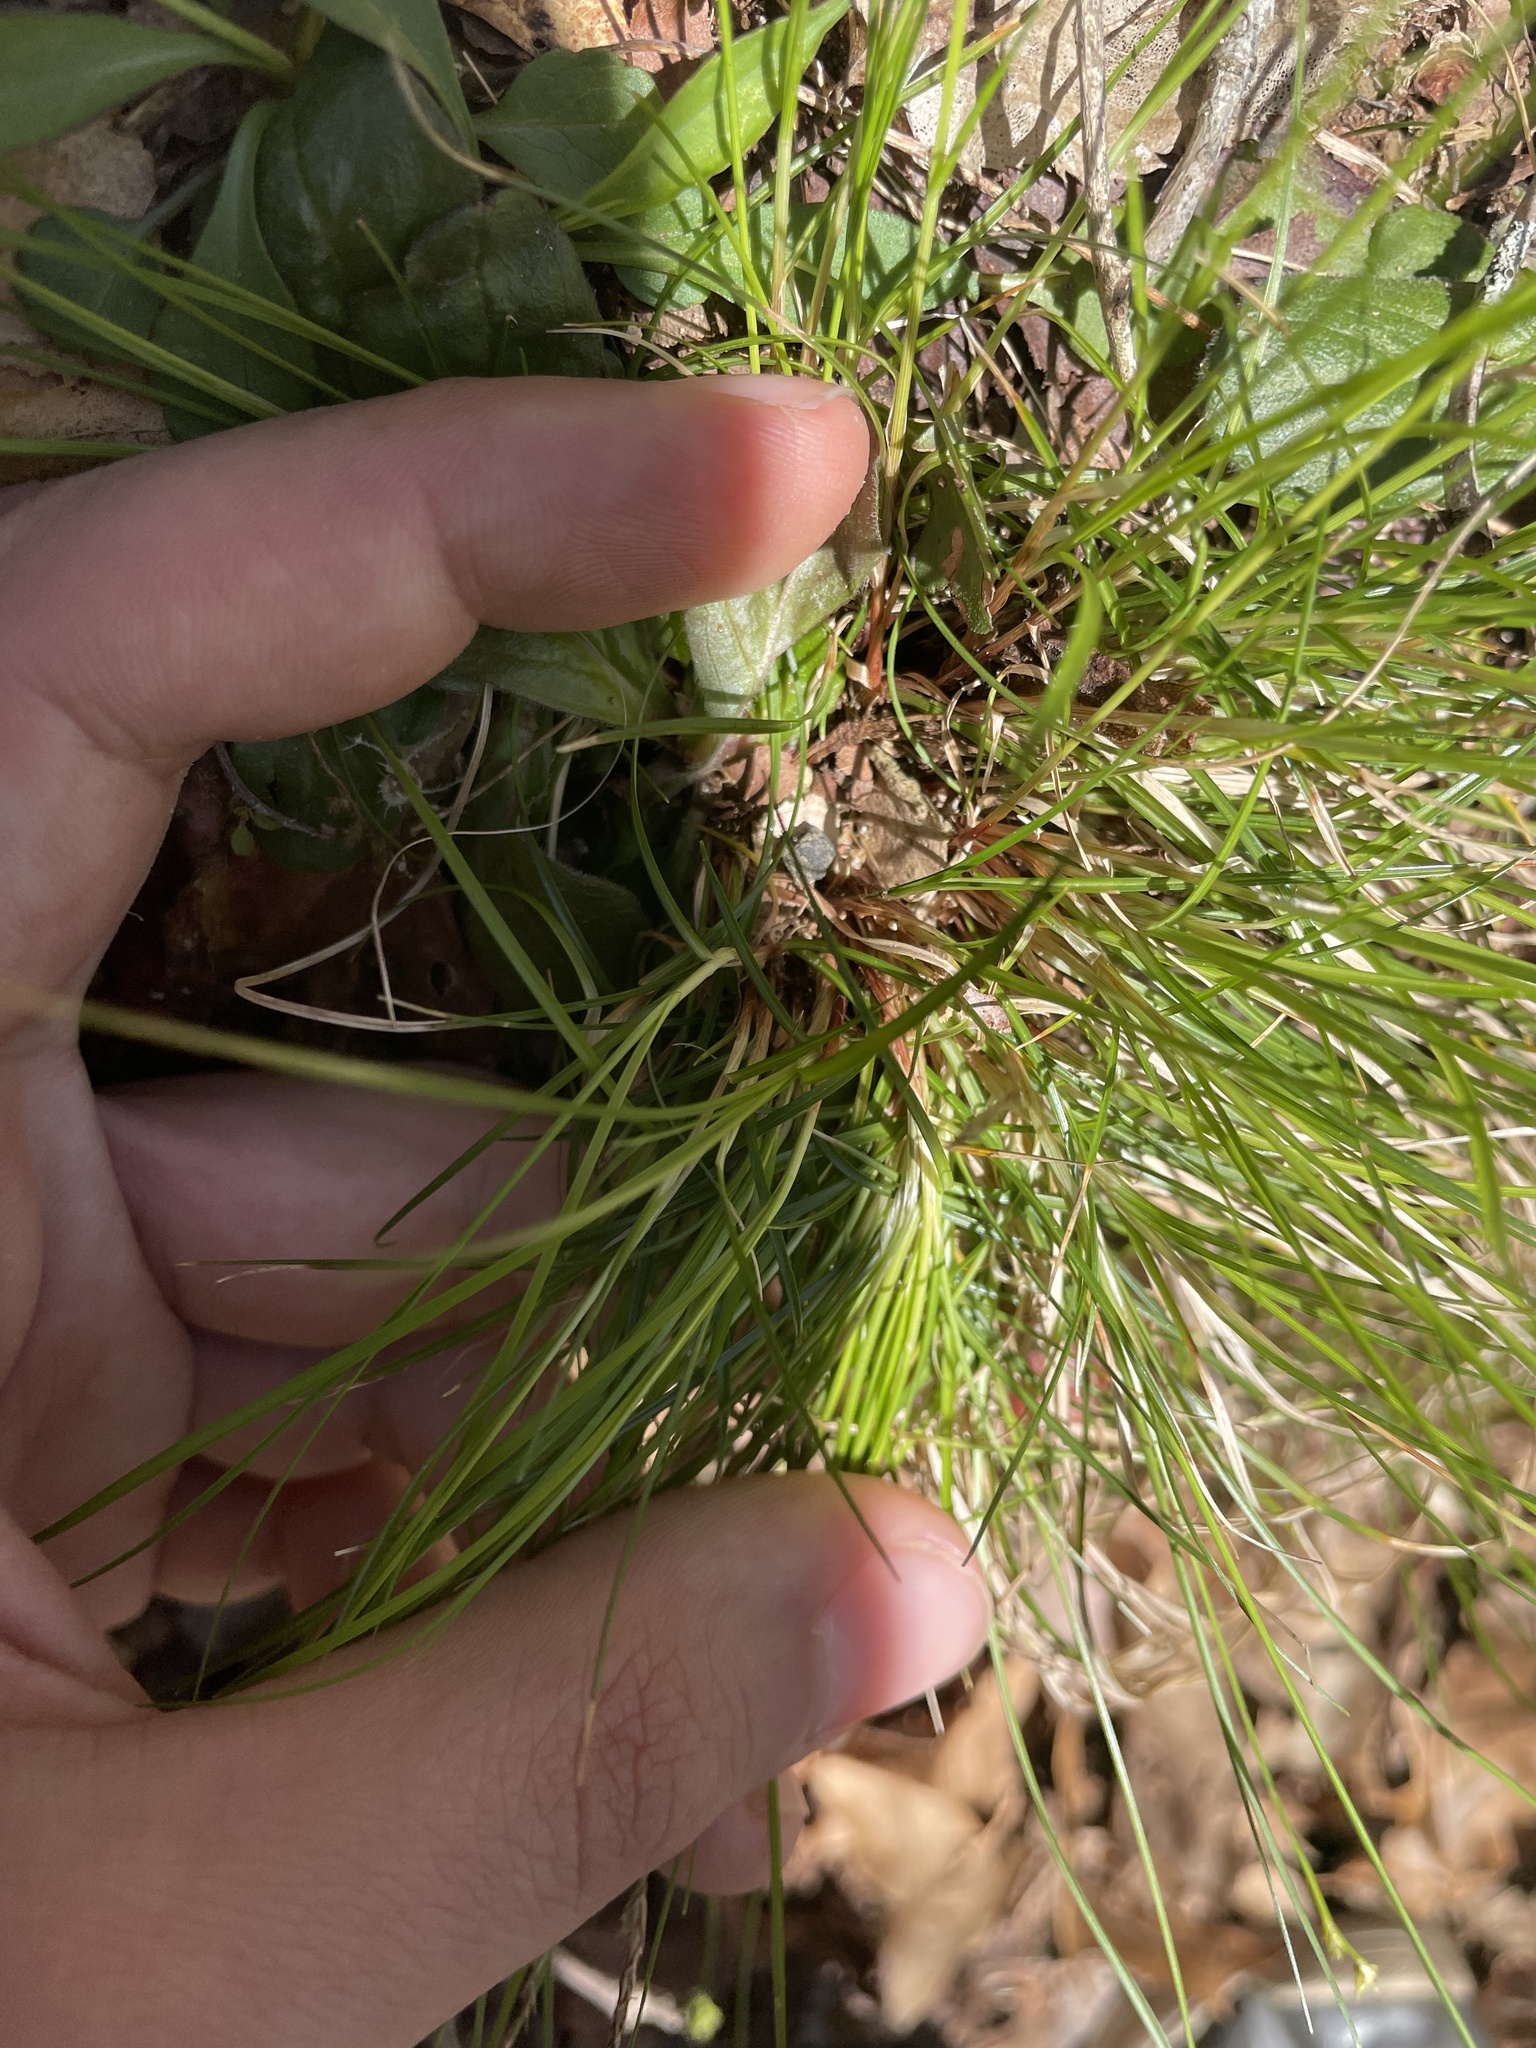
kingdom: Plantae
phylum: Tracheophyta
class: Liliopsida
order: Poales
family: Cyperaceae
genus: Carex
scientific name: Carex albicans
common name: Bellow-beaked sedge
